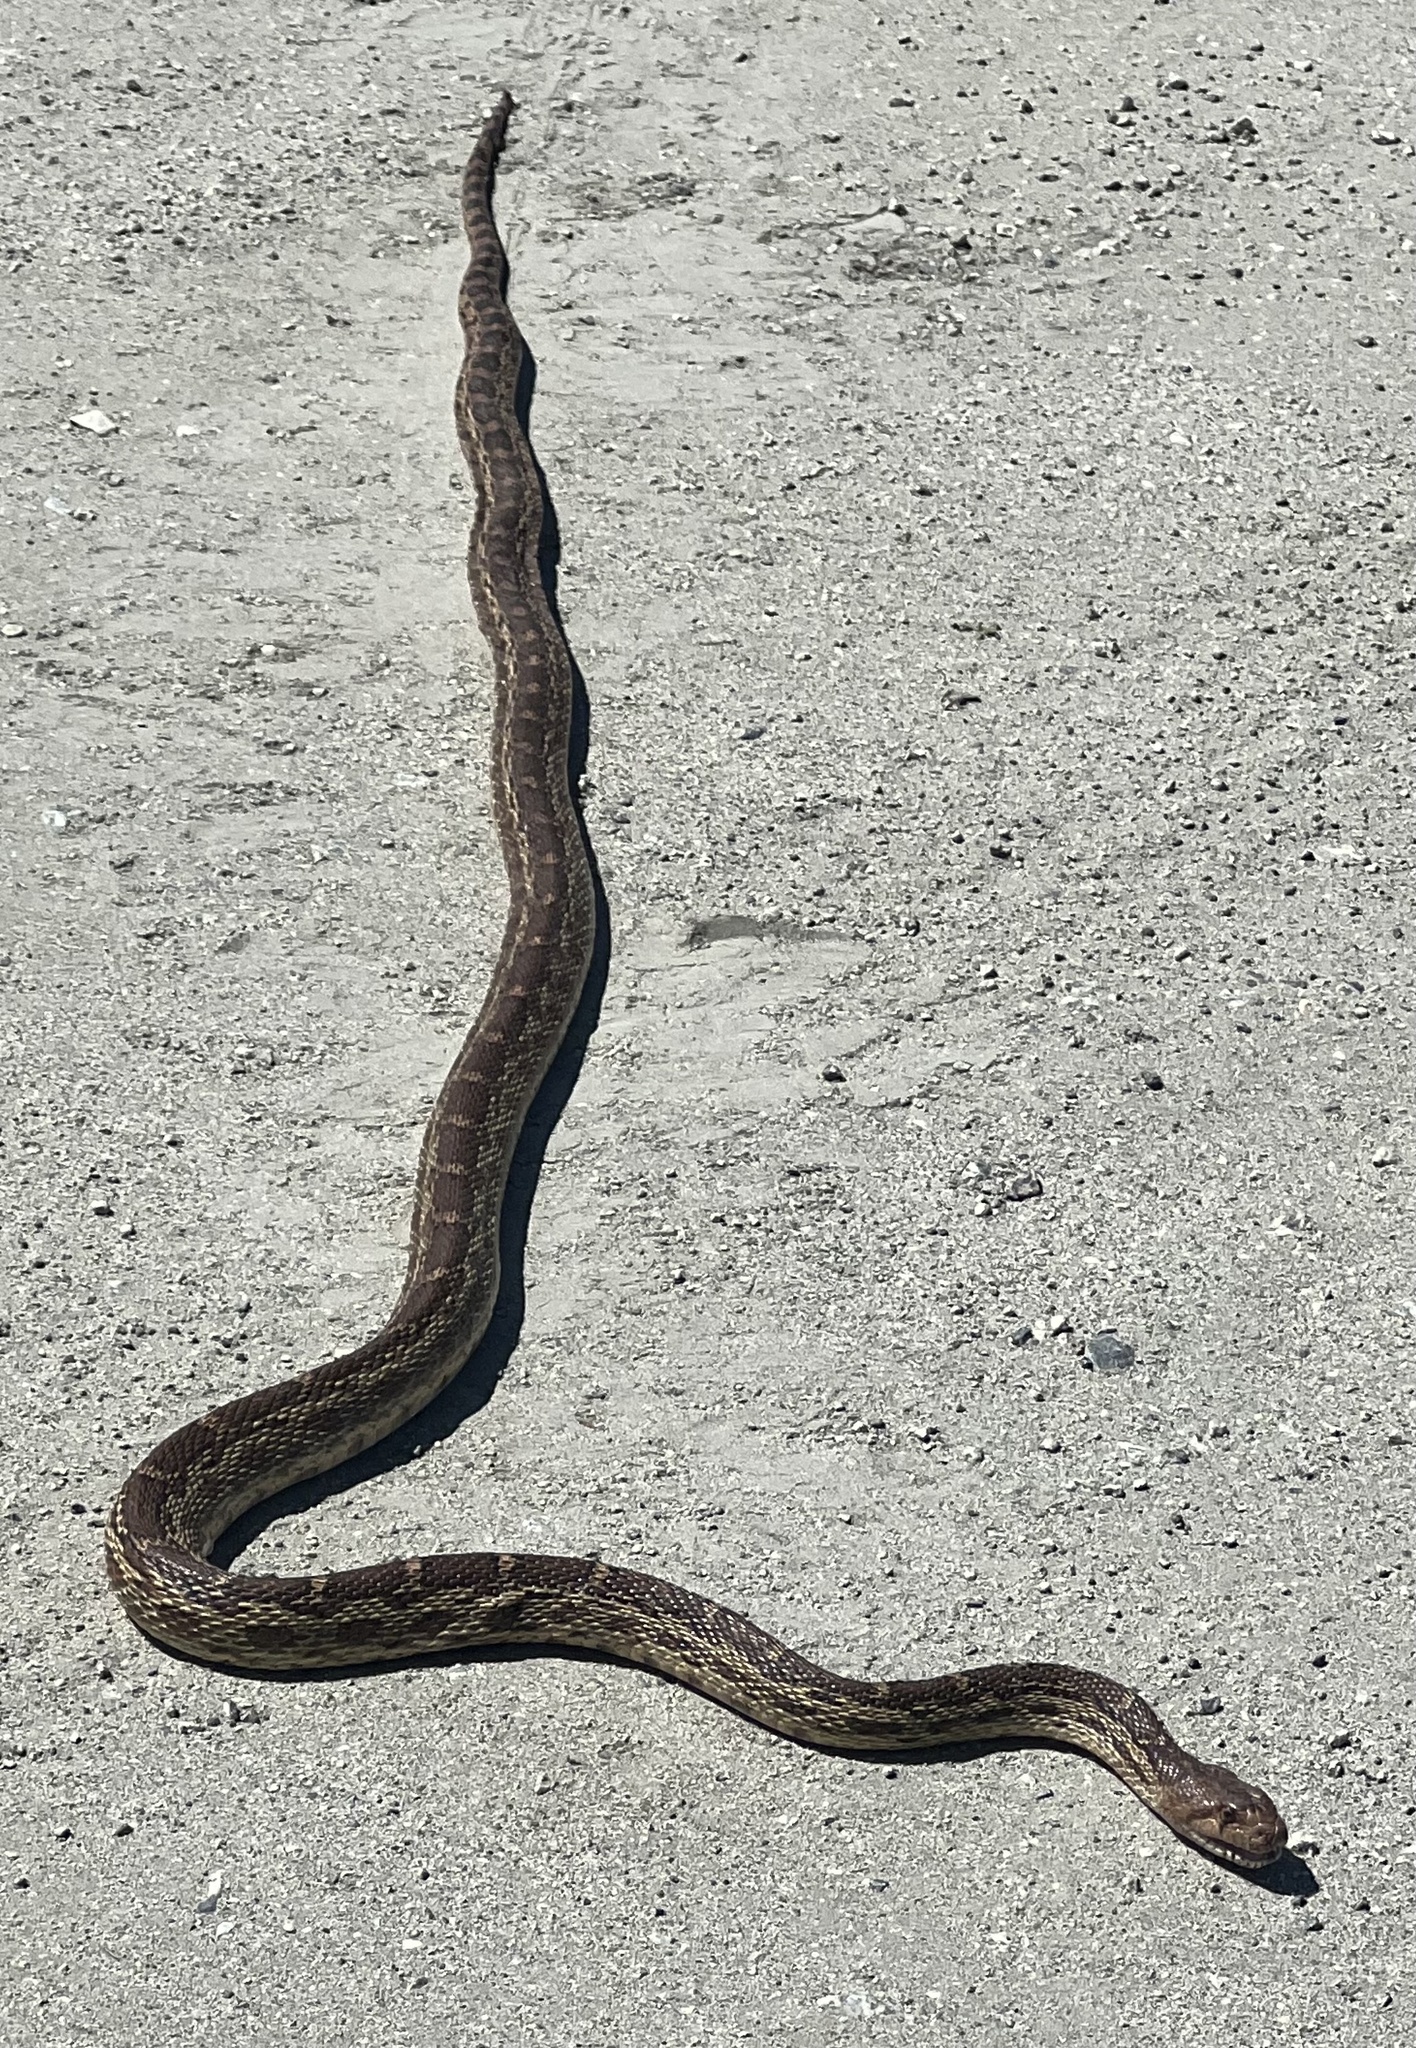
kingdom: Animalia
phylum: Chordata
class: Squamata
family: Colubridae
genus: Pituophis
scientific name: Pituophis catenifer
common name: Gopher snake
